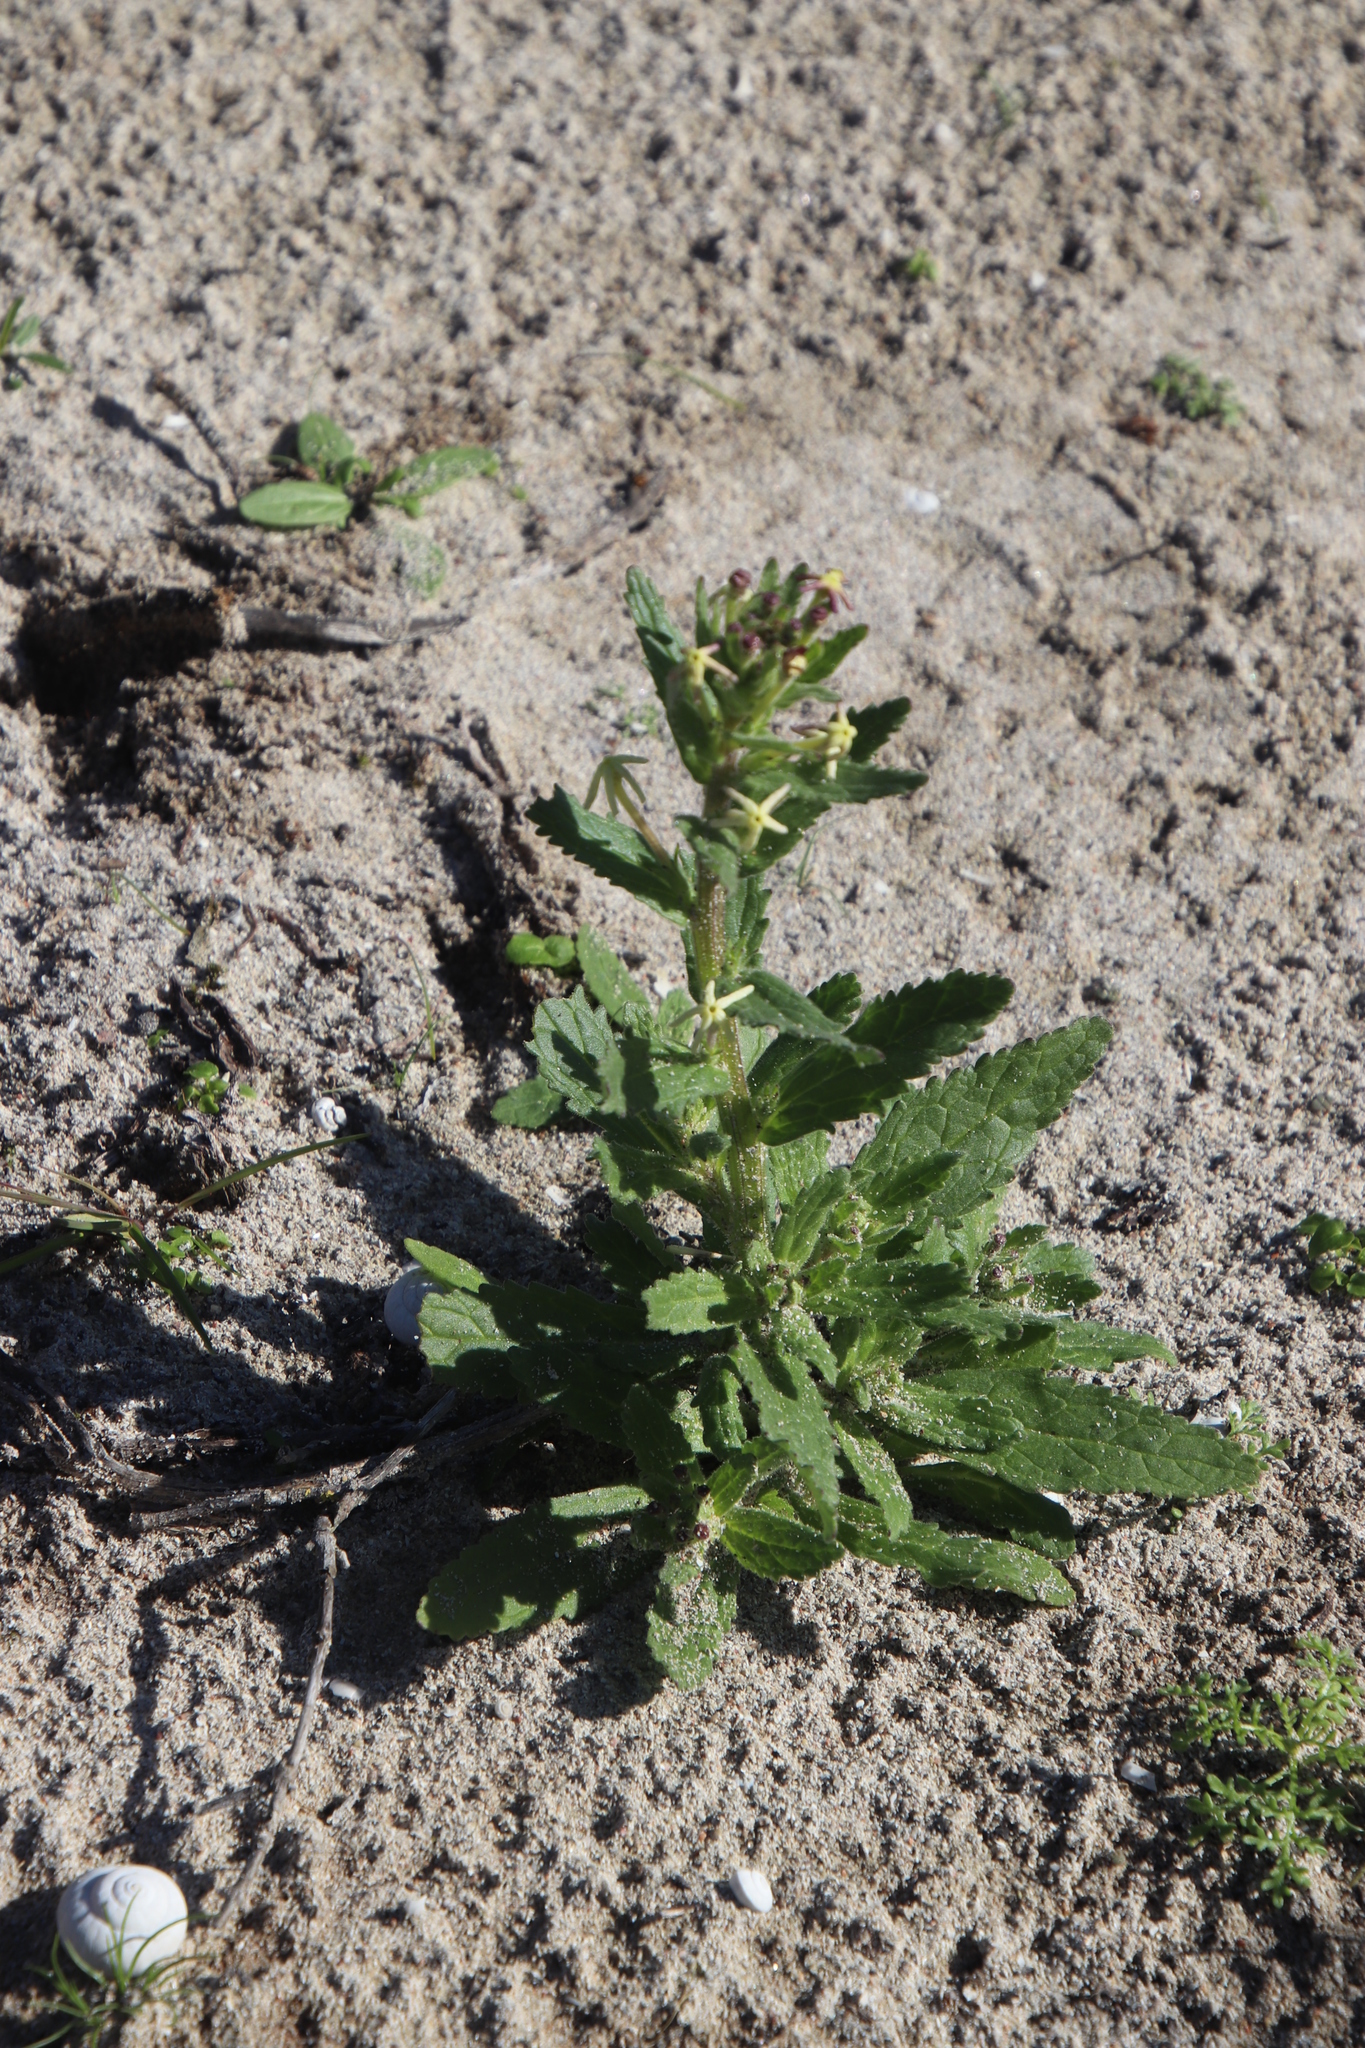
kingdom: Plantae
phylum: Tracheophyta
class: Magnoliopsida
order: Lamiales
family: Scrophulariaceae
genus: Lyperia
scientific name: Lyperia tristis
